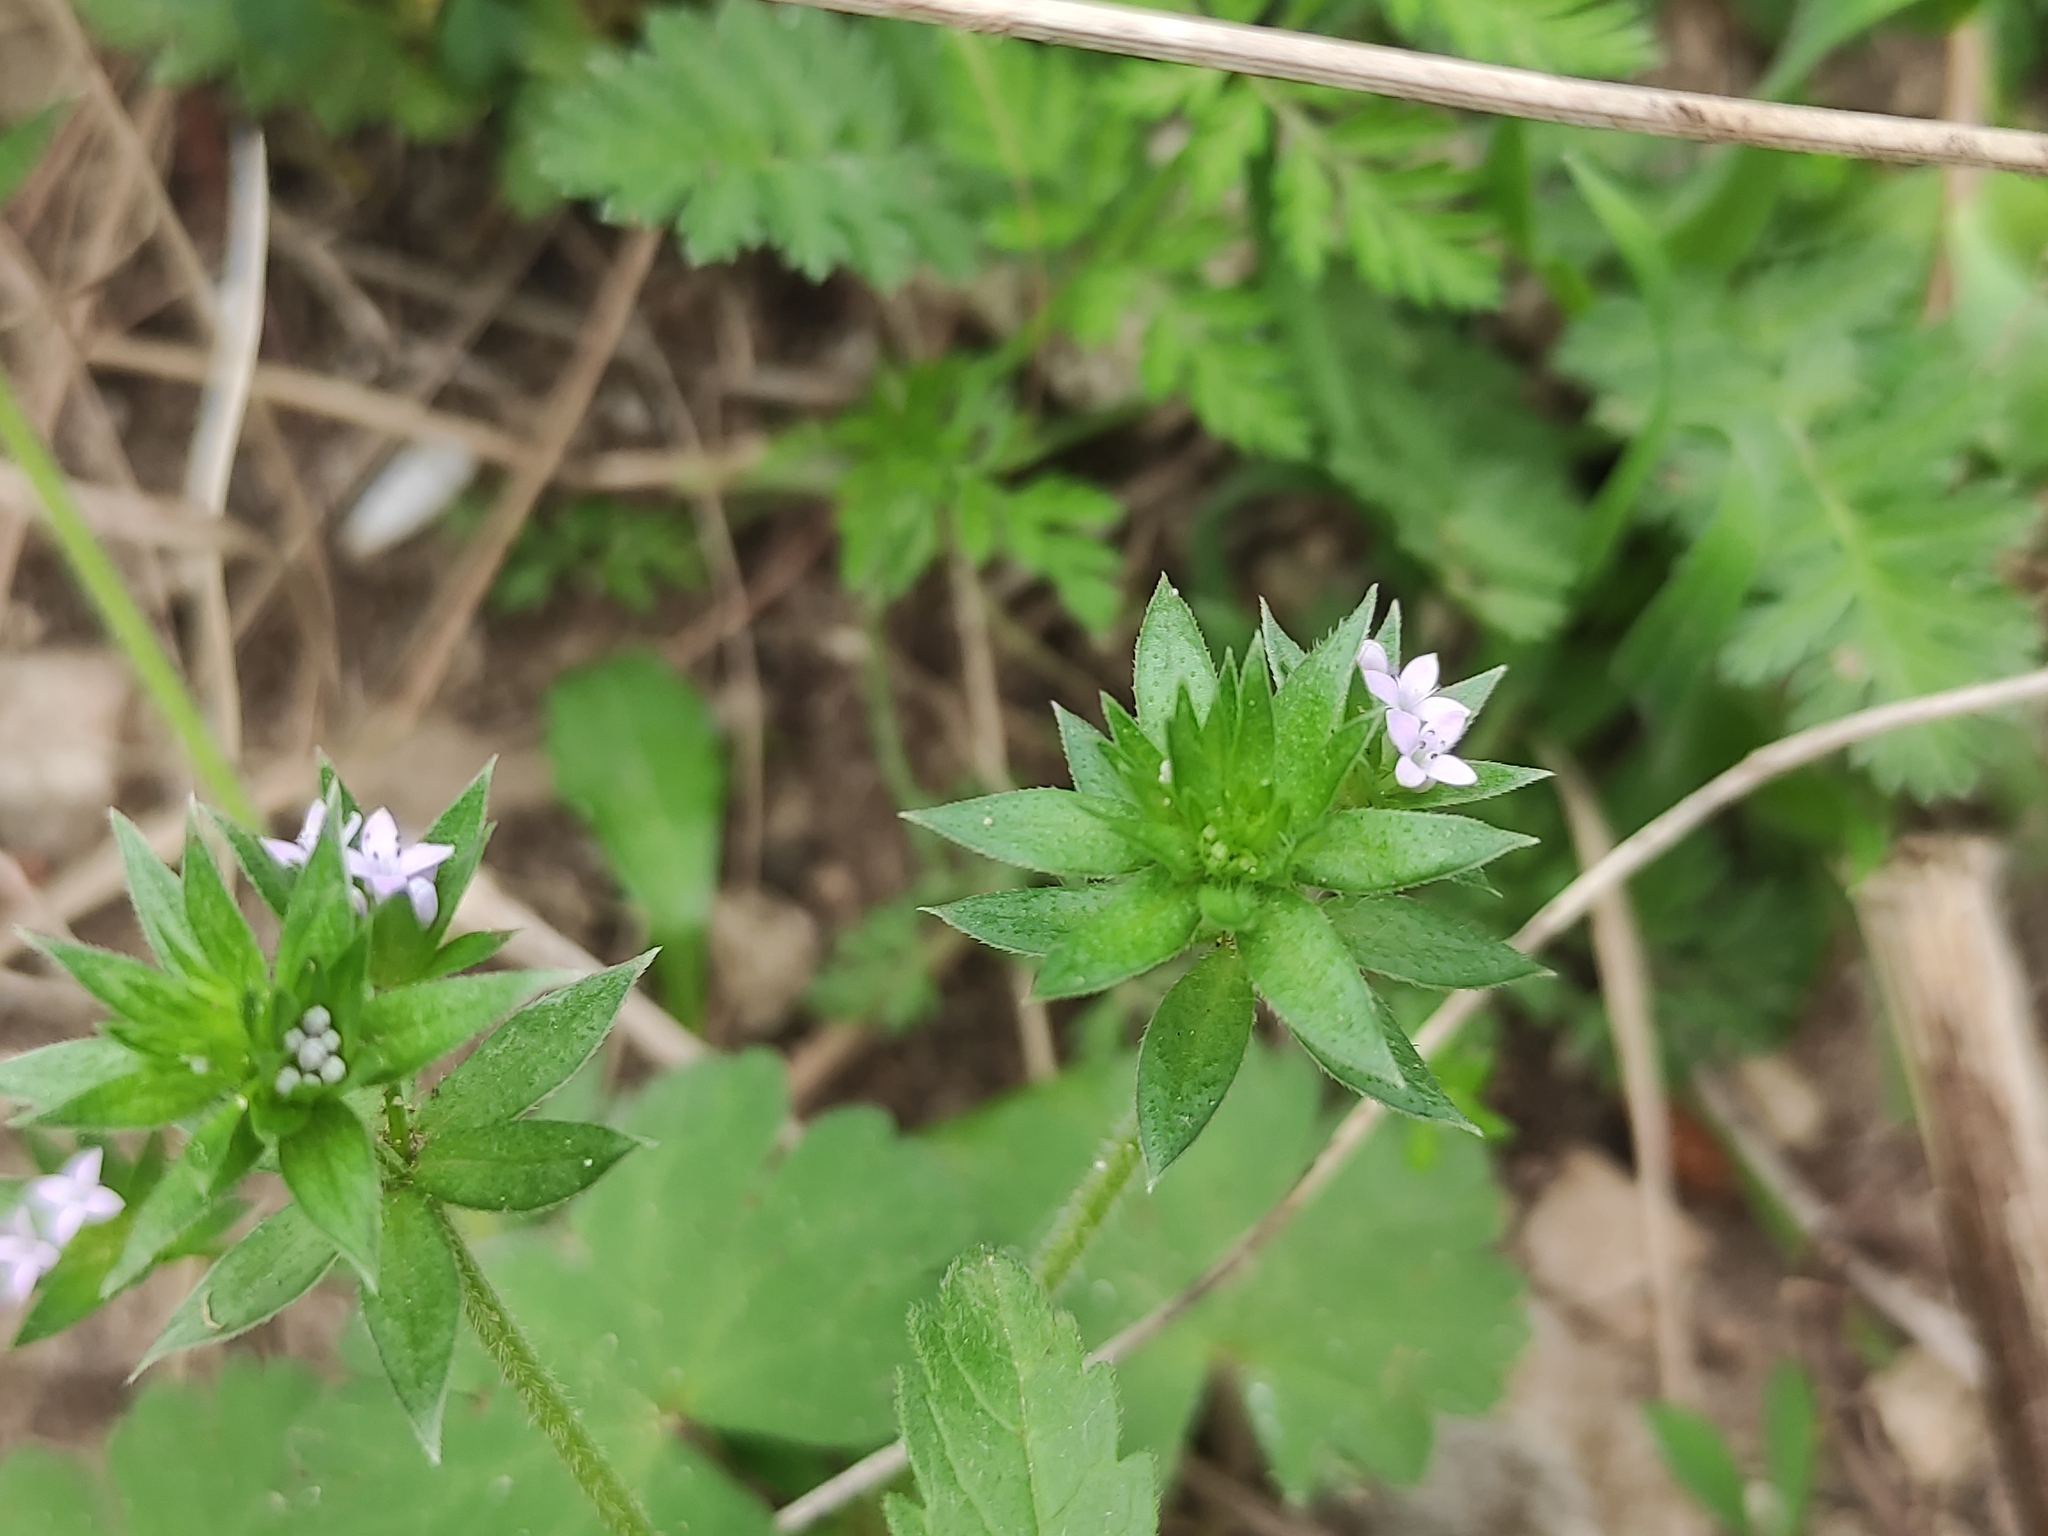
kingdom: Plantae
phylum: Tracheophyta
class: Magnoliopsida
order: Gentianales
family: Rubiaceae
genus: Sherardia
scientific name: Sherardia arvensis
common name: Field madder
